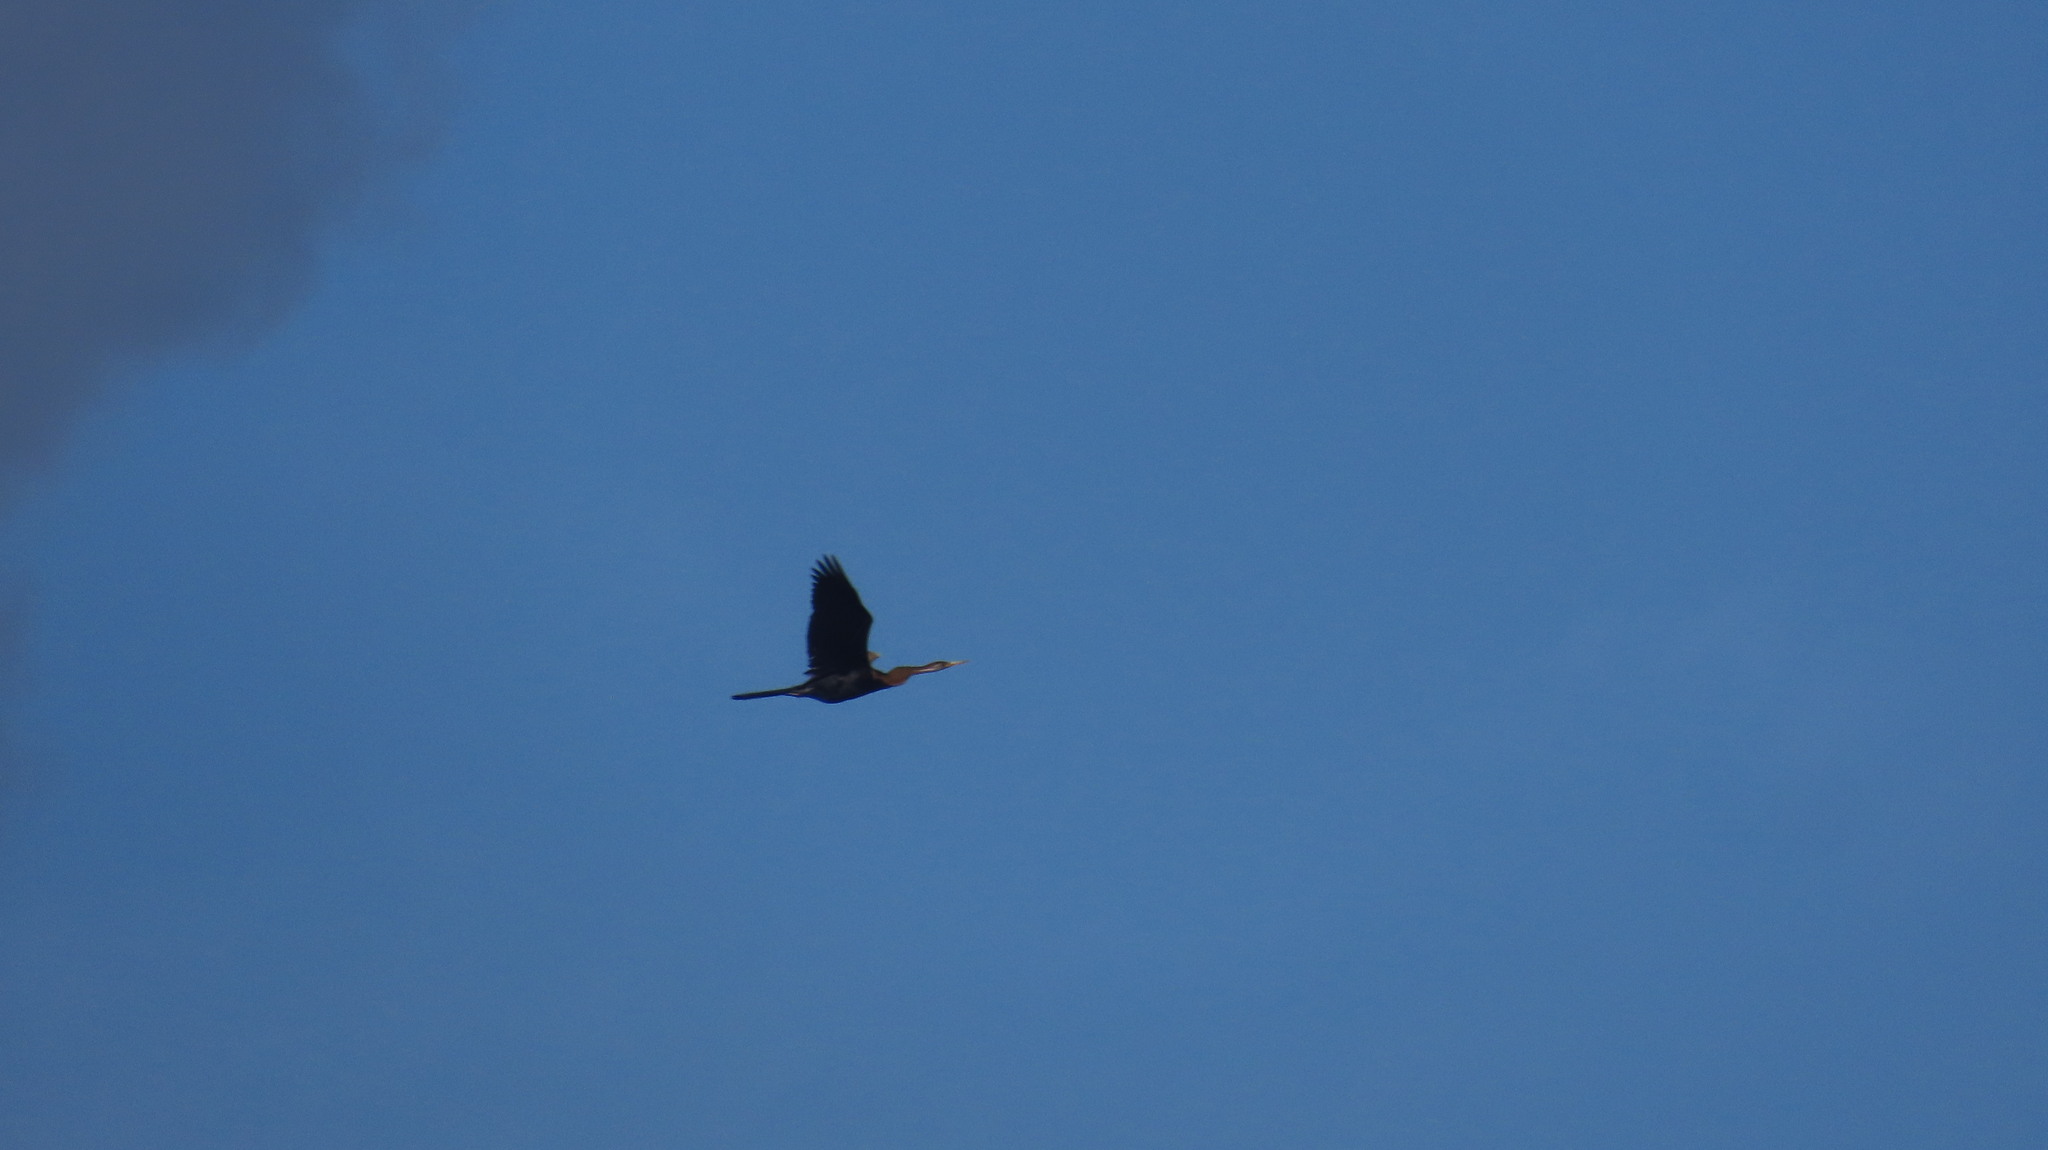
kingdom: Animalia
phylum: Chordata
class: Aves
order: Suliformes
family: Anhingidae
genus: Anhinga
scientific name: Anhinga melanogaster
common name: Oriental darter
